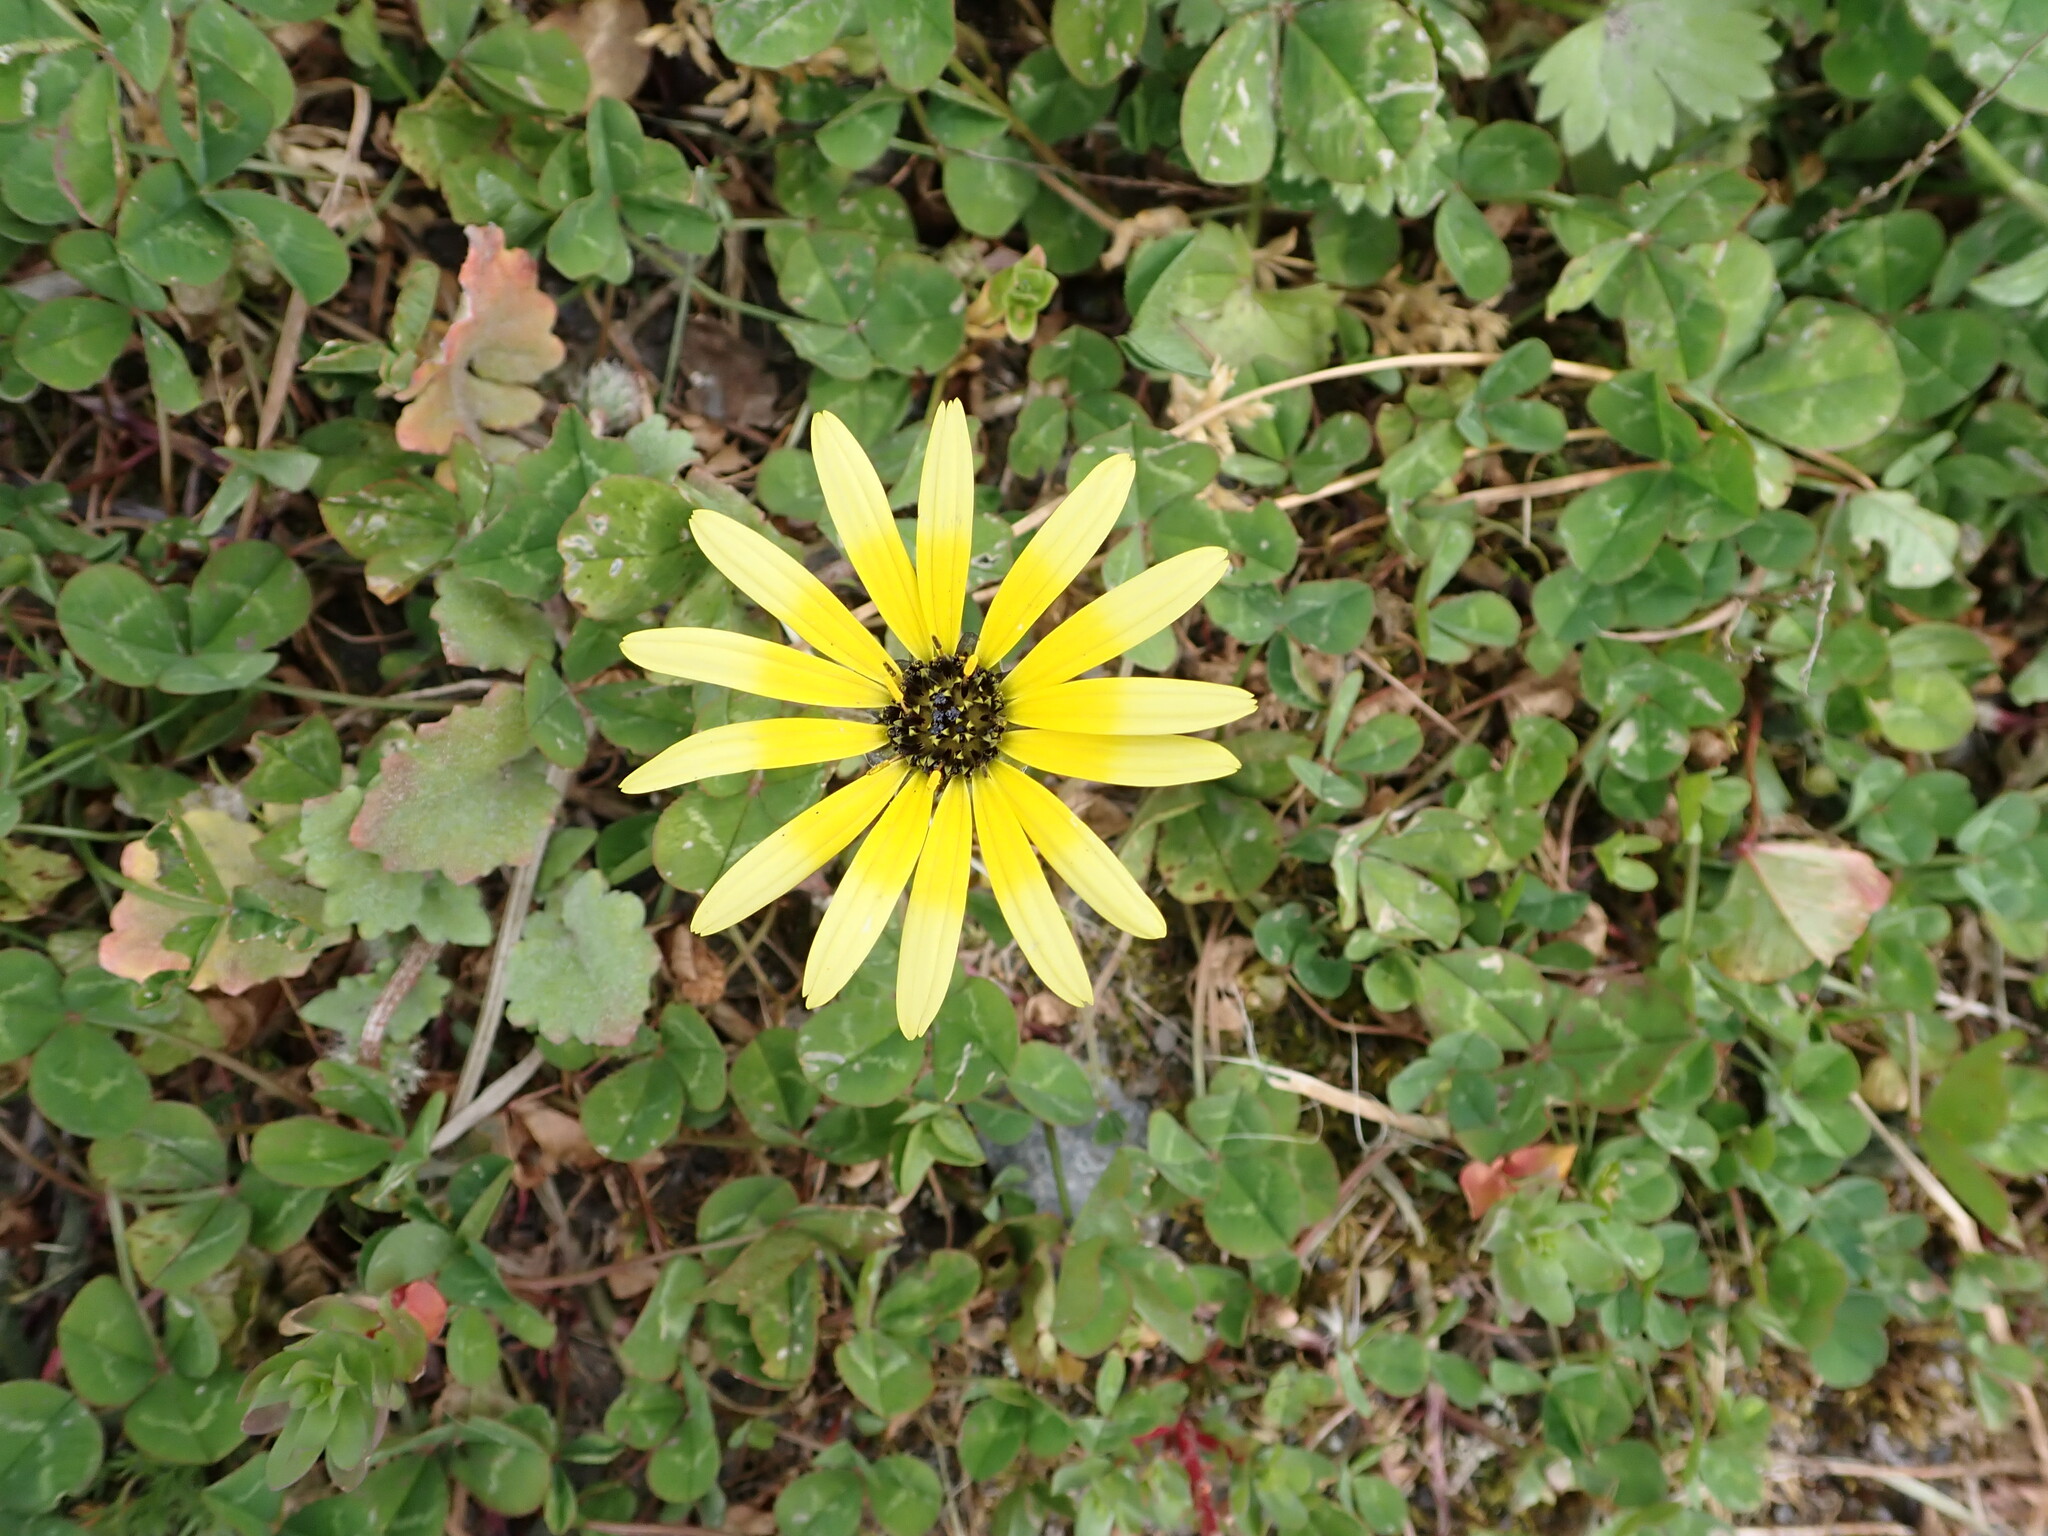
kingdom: Plantae
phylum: Tracheophyta
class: Magnoliopsida
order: Asterales
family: Asteraceae
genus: Arctotheca
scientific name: Arctotheca calendula
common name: Capeweed
